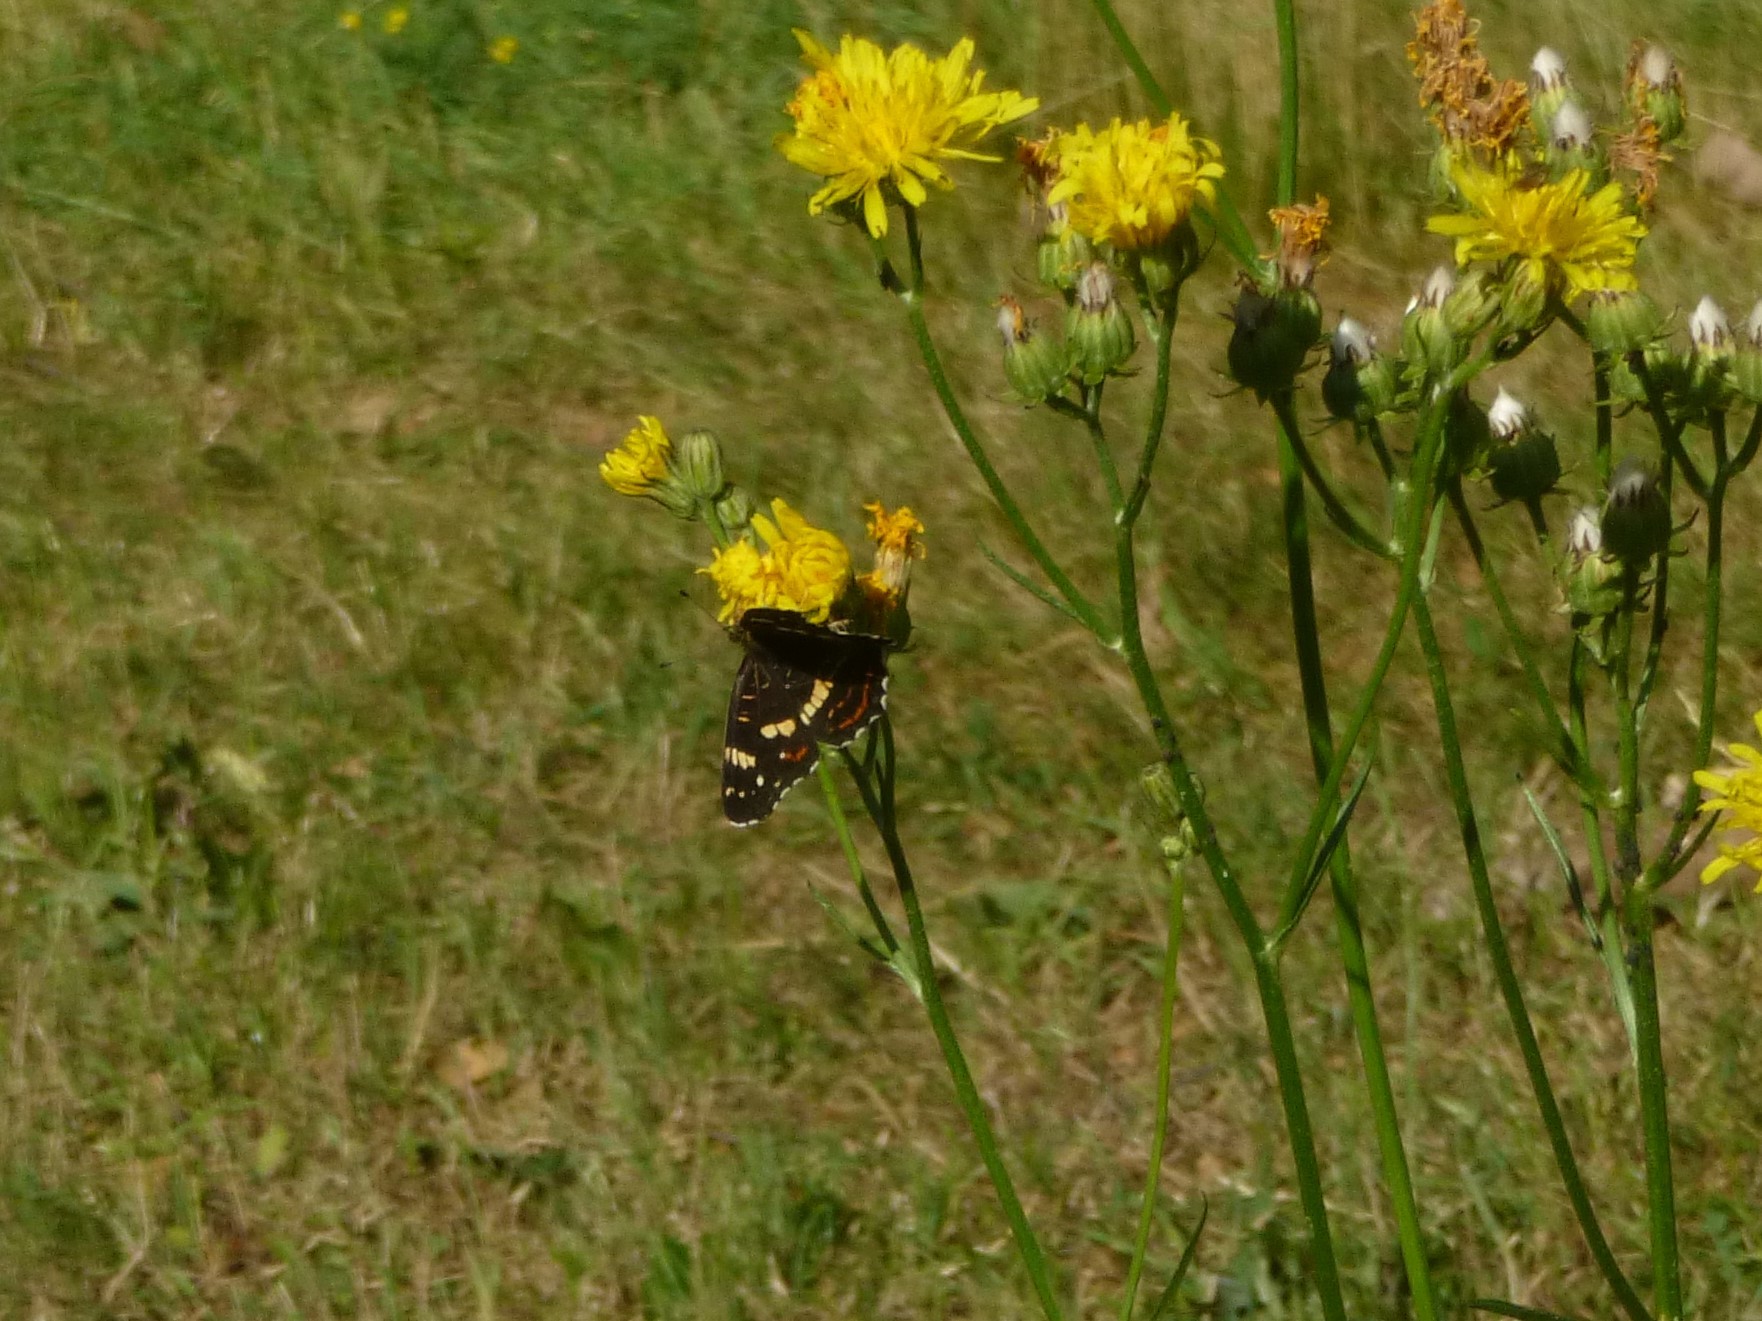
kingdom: Animalia
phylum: Arthropoda
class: Insecta
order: Lepidoptera
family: Nymphalidae
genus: Araschnia
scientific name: Araschnia levana
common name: Map butterfly
